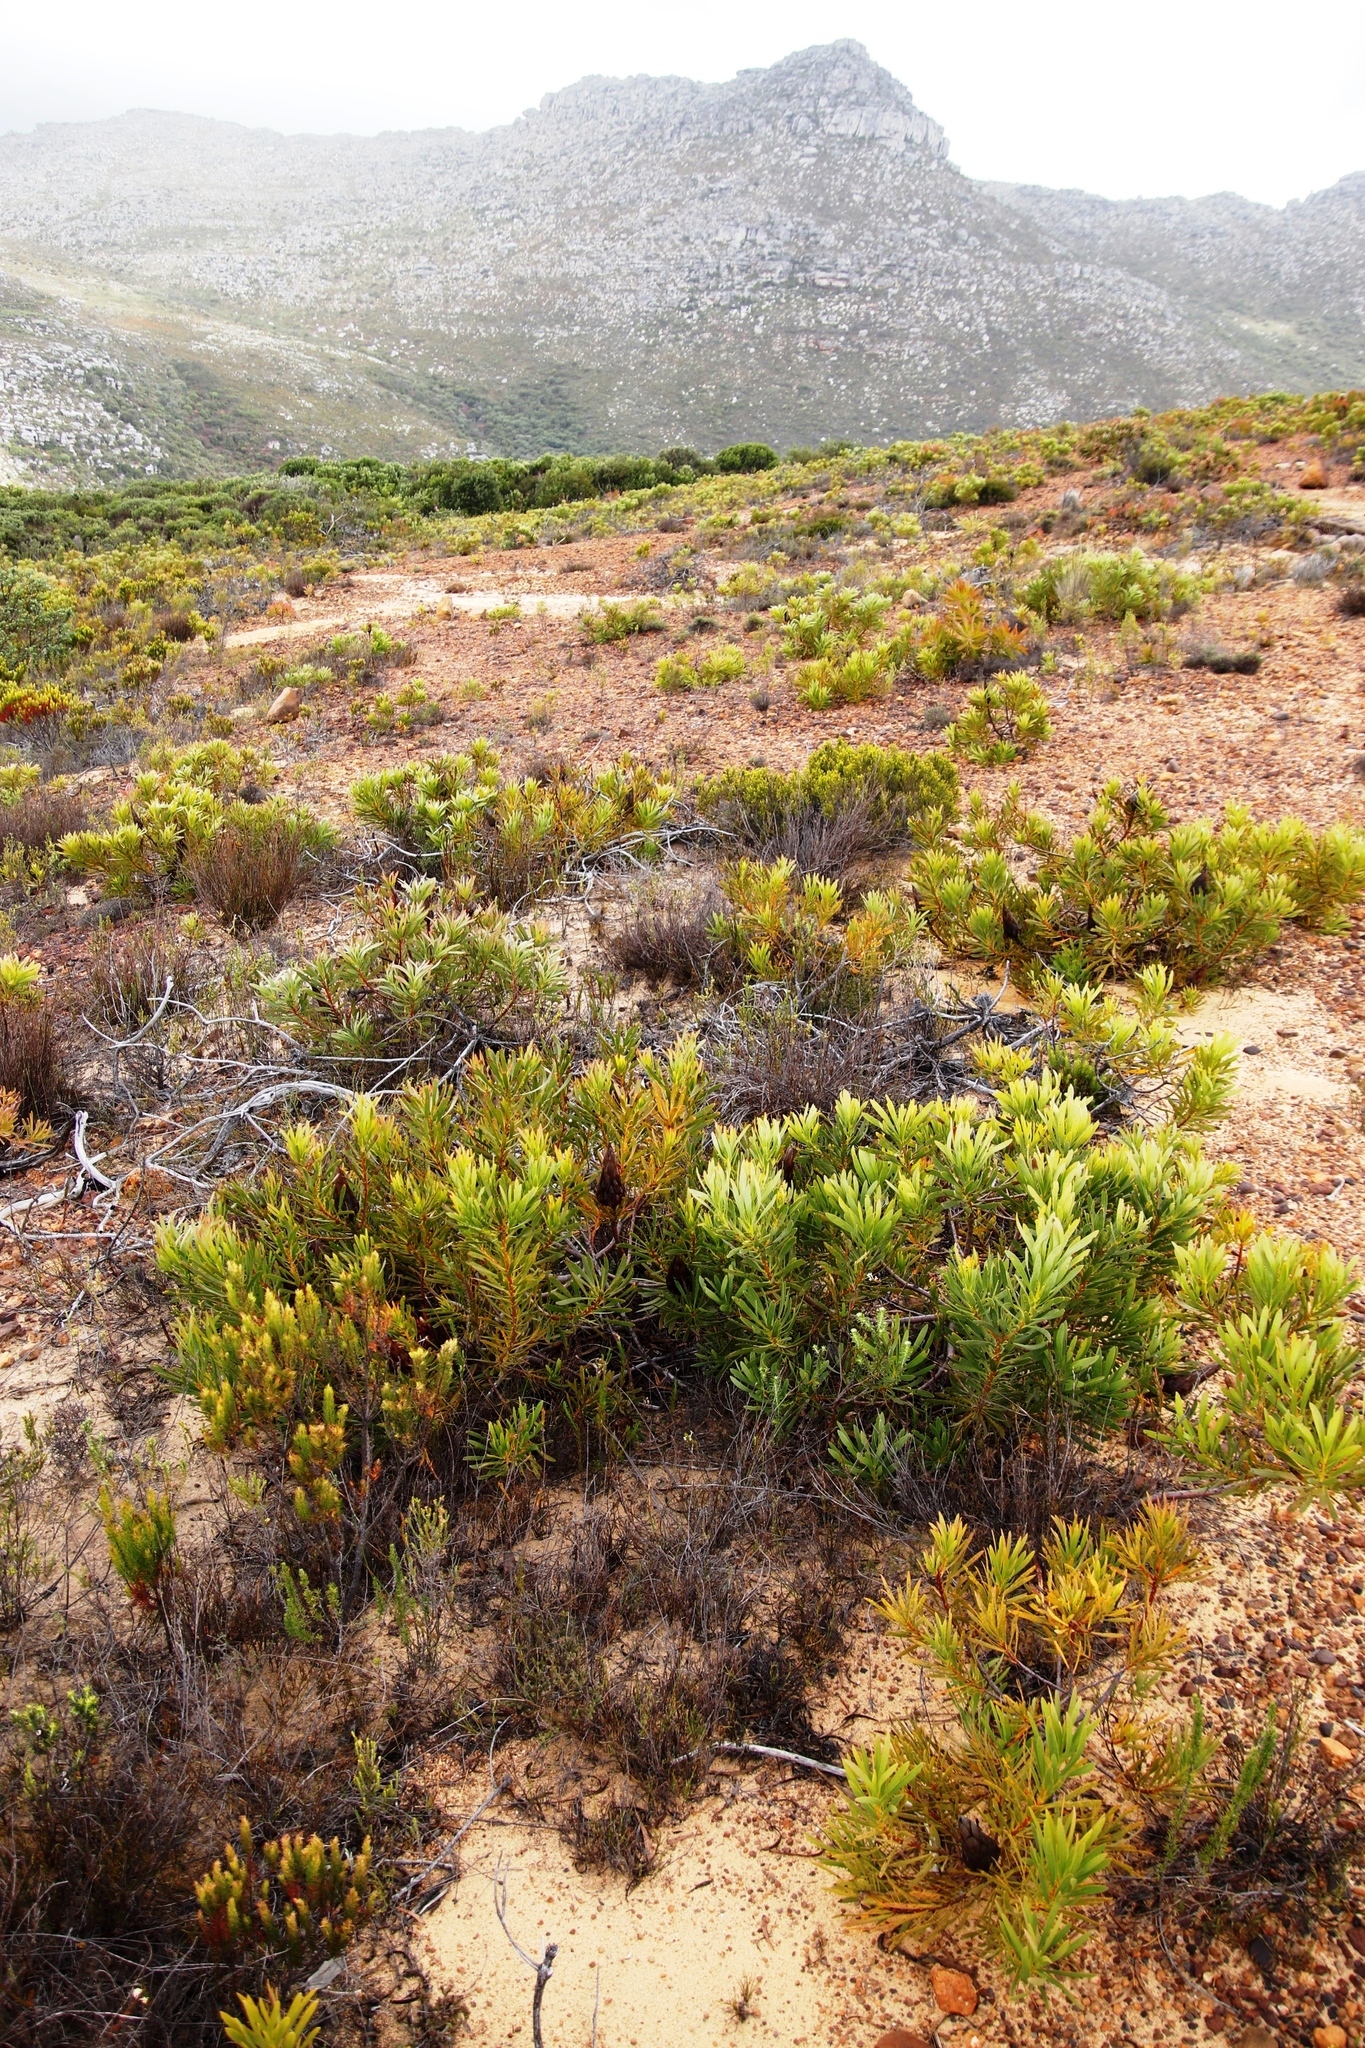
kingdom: Plantae
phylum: Tracheophyta
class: Magnoliopsida
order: Proteales
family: Proteaceae
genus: Protea
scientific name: Protea repens
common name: Sugarbush
